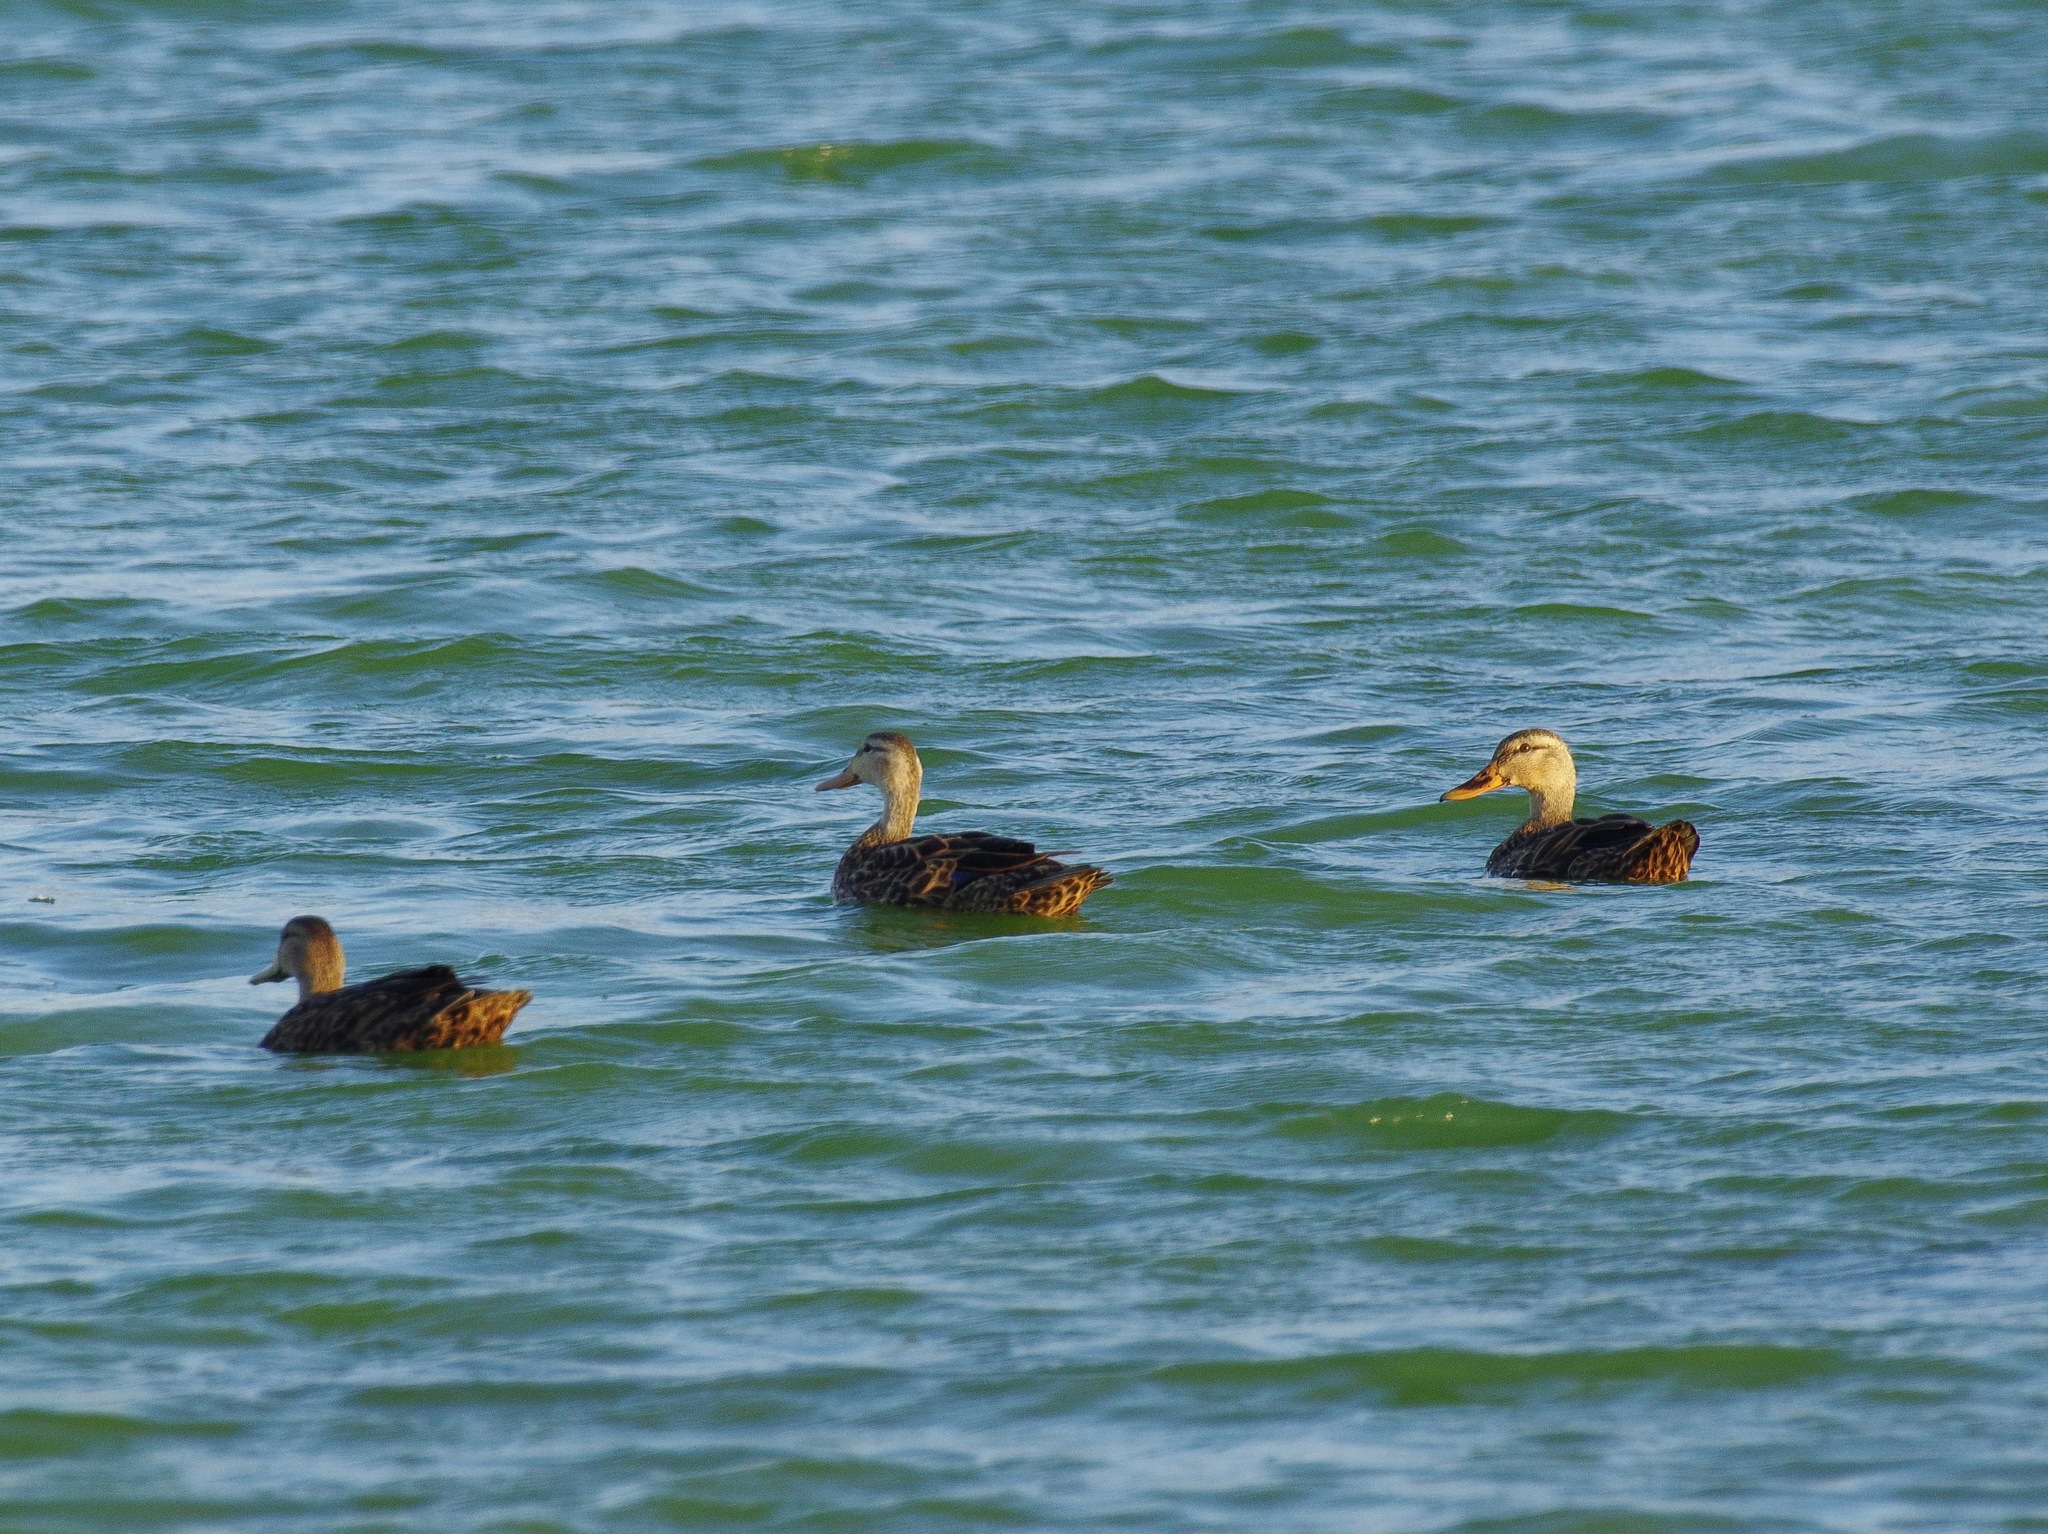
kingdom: Animalia
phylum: Chordata
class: Aves
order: Anseriformes
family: Anatidae
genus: Anas
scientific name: Anas fulvigula
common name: Mottled duck
